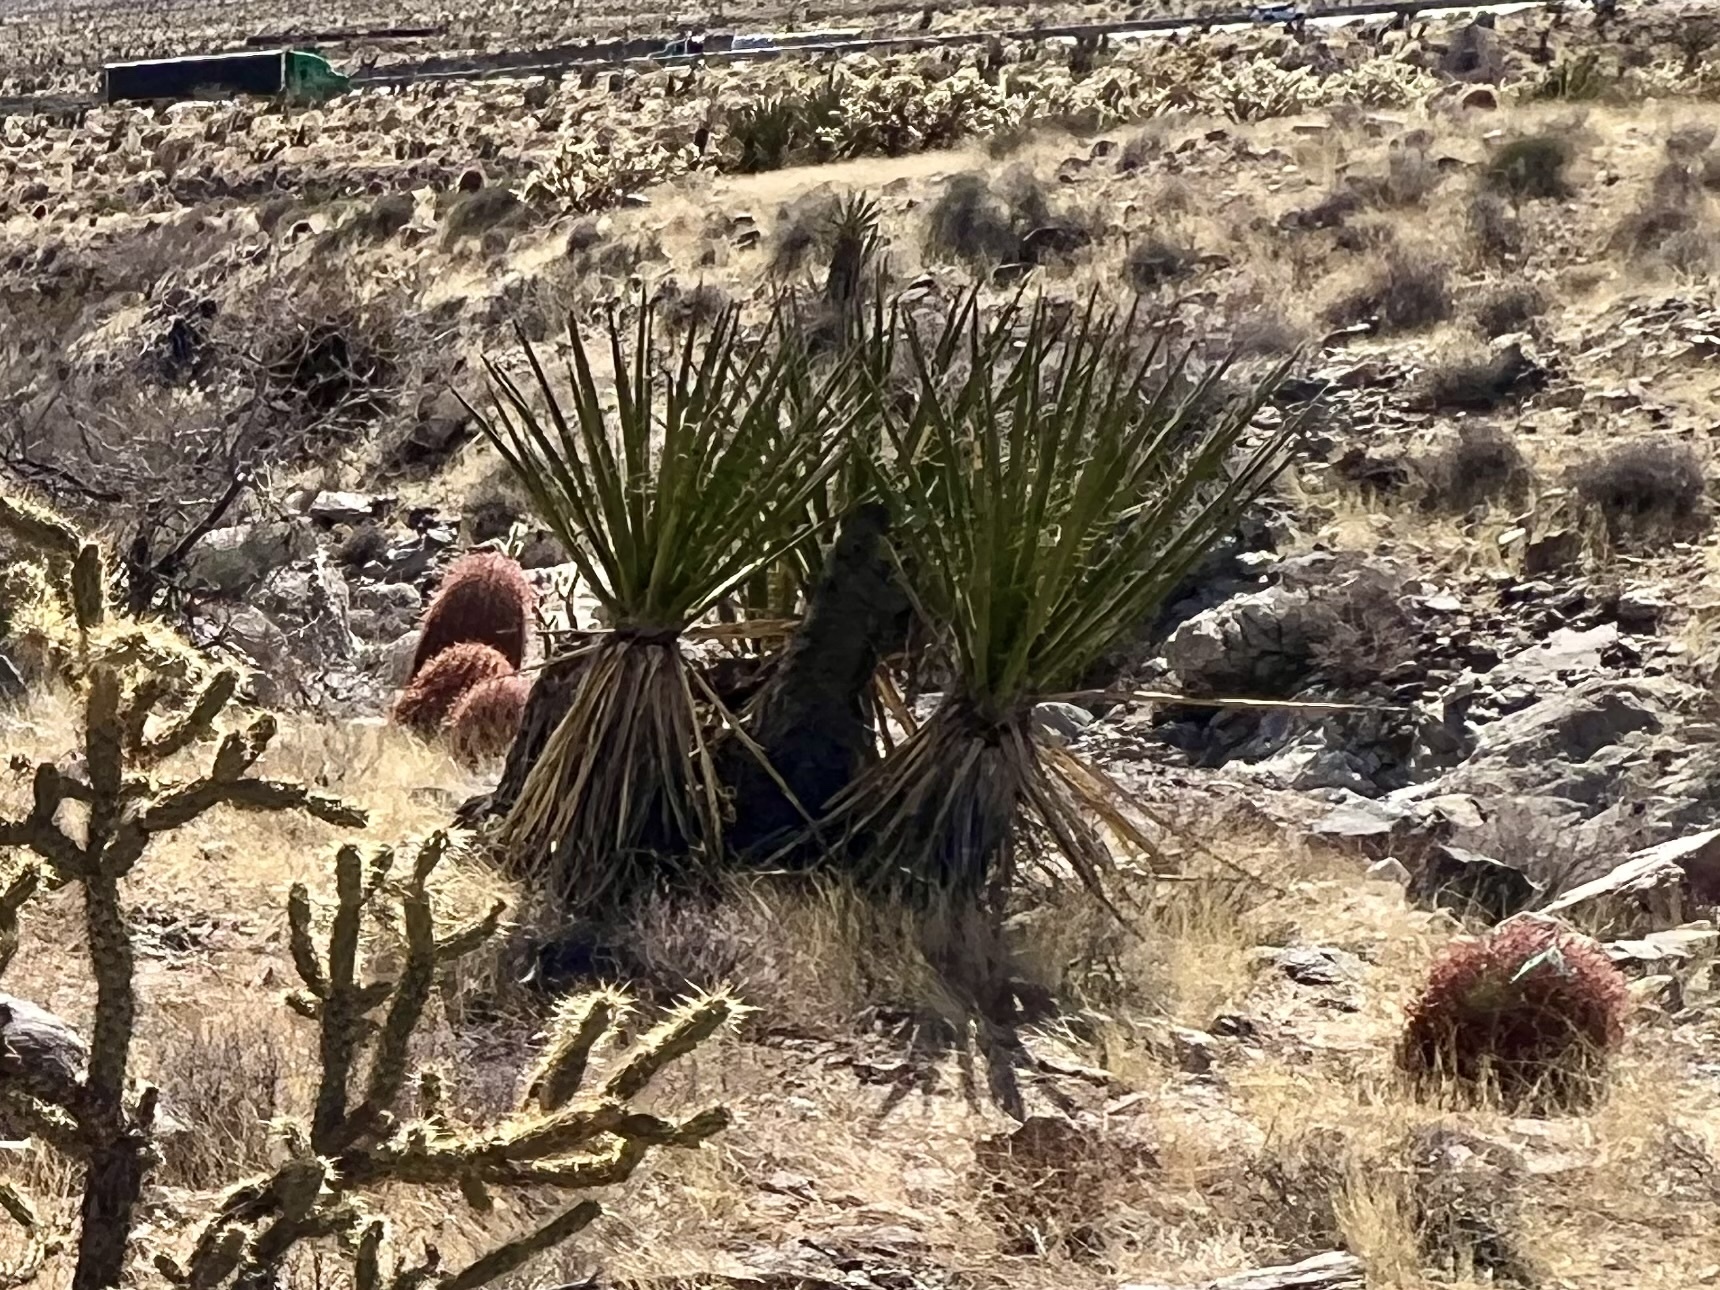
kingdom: Plantae
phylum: Tracheophyta
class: Liliopsida
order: Asparagales
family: Asparagaceae
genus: Yucca
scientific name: Yucca schidigera
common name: Mojave yucca
